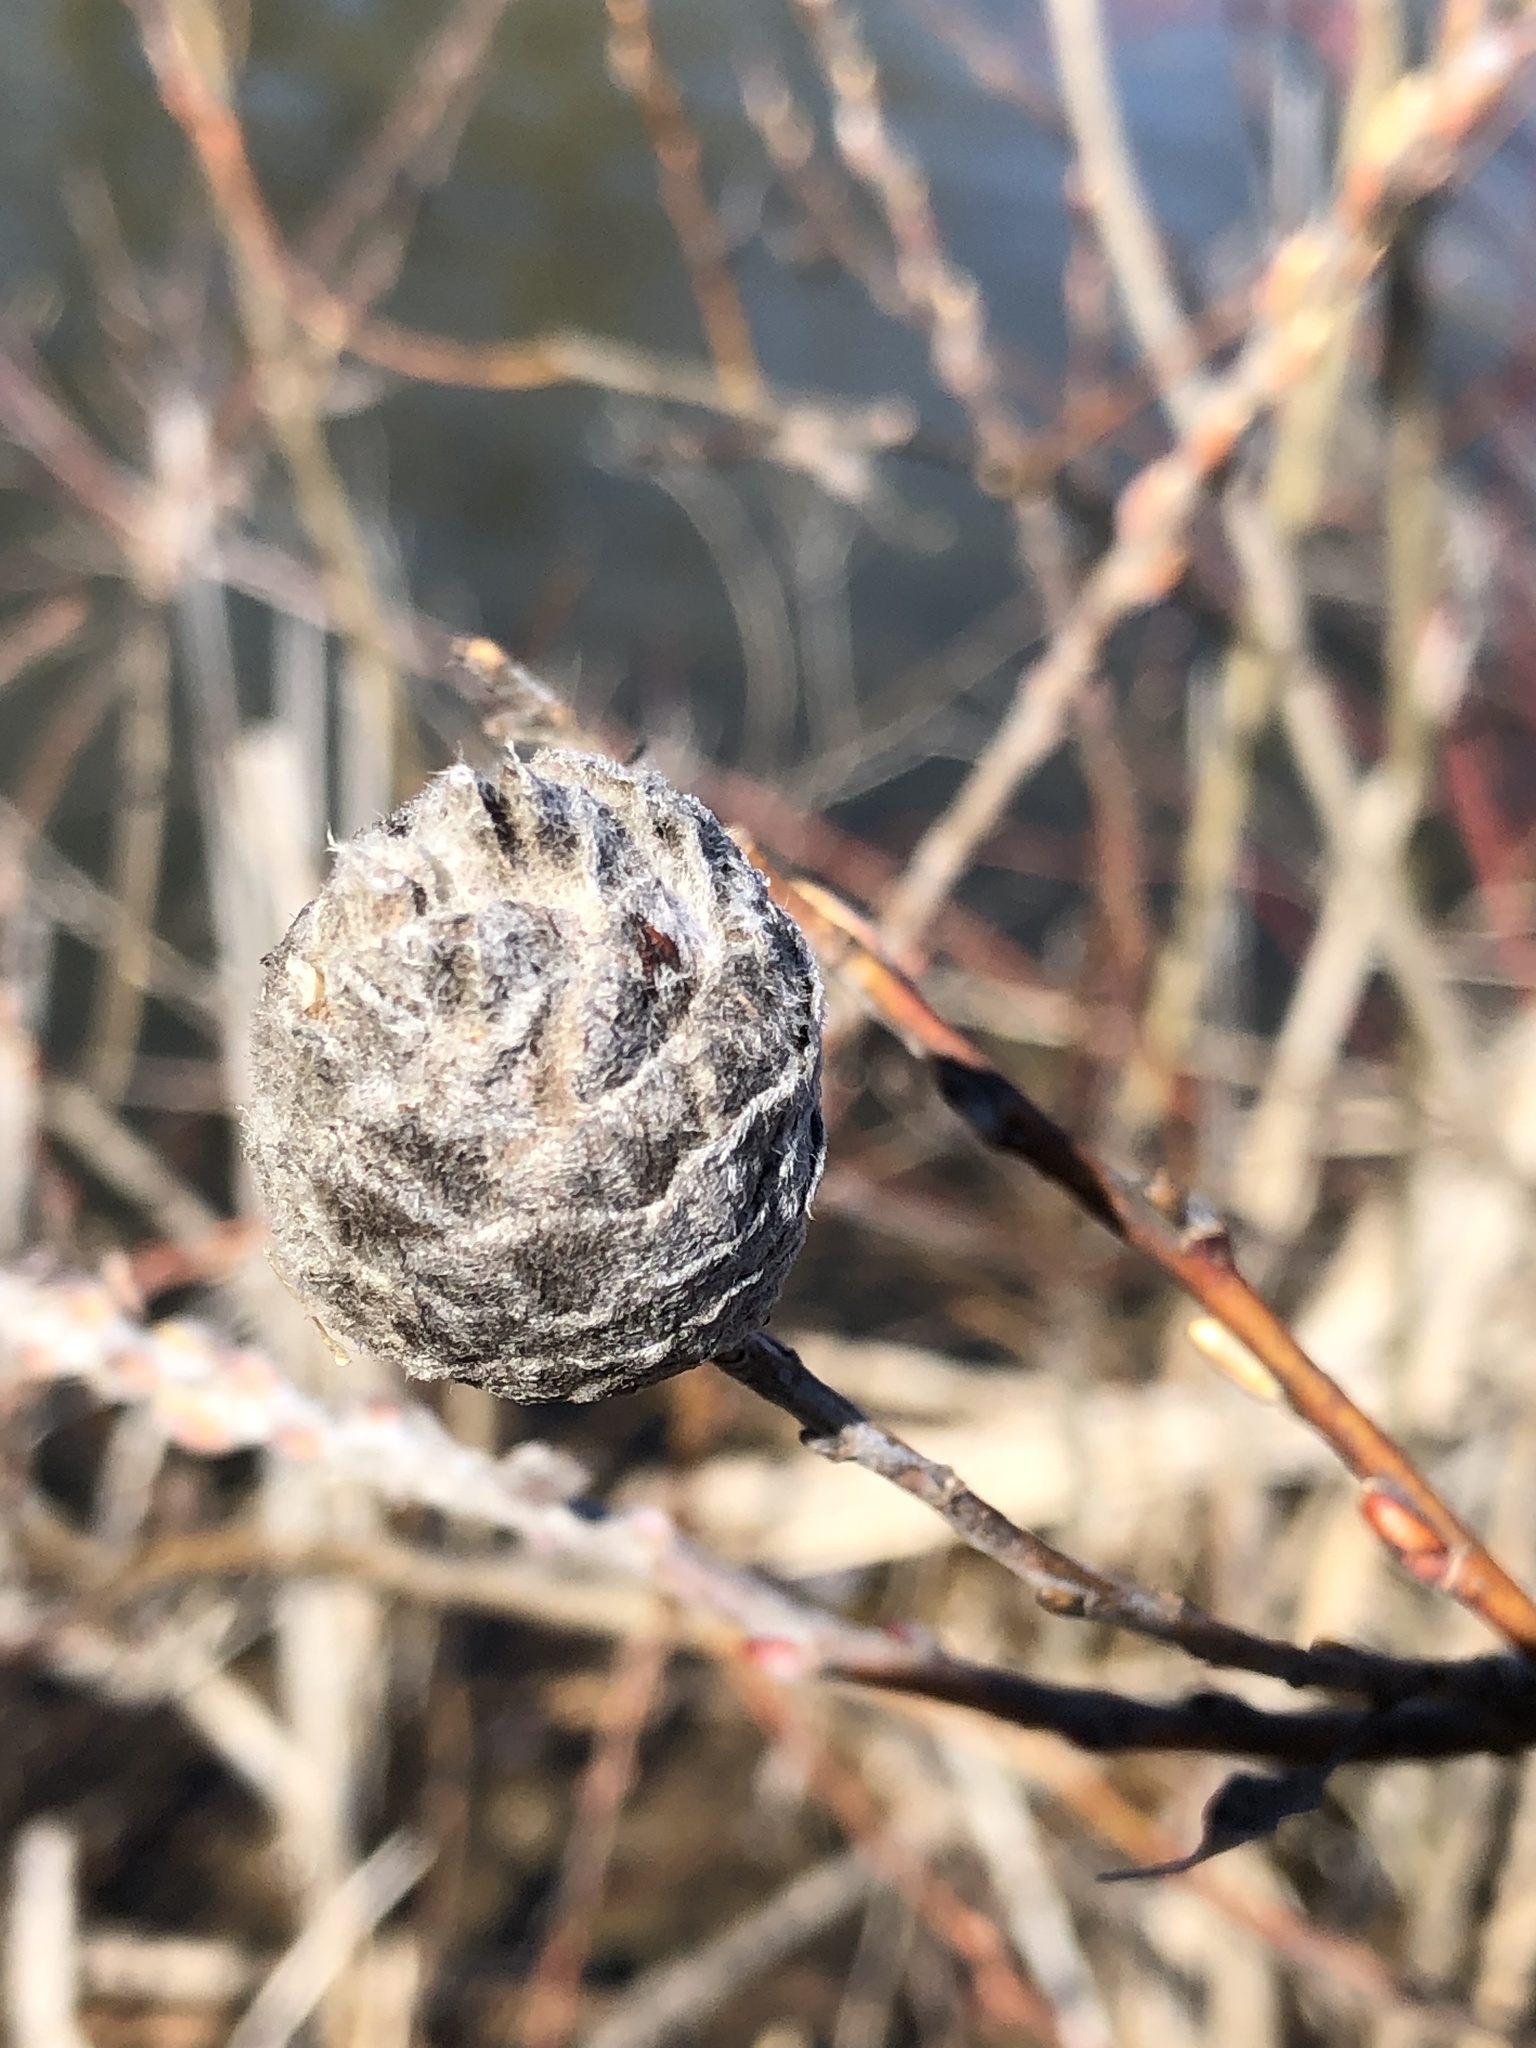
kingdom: Animalia
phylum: Arthropoda
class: Insecta
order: Diptera
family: Cecidomyiidae
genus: Rabdophaga
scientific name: Rabdophaga strobiloides
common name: Willow pinecone gall midge
